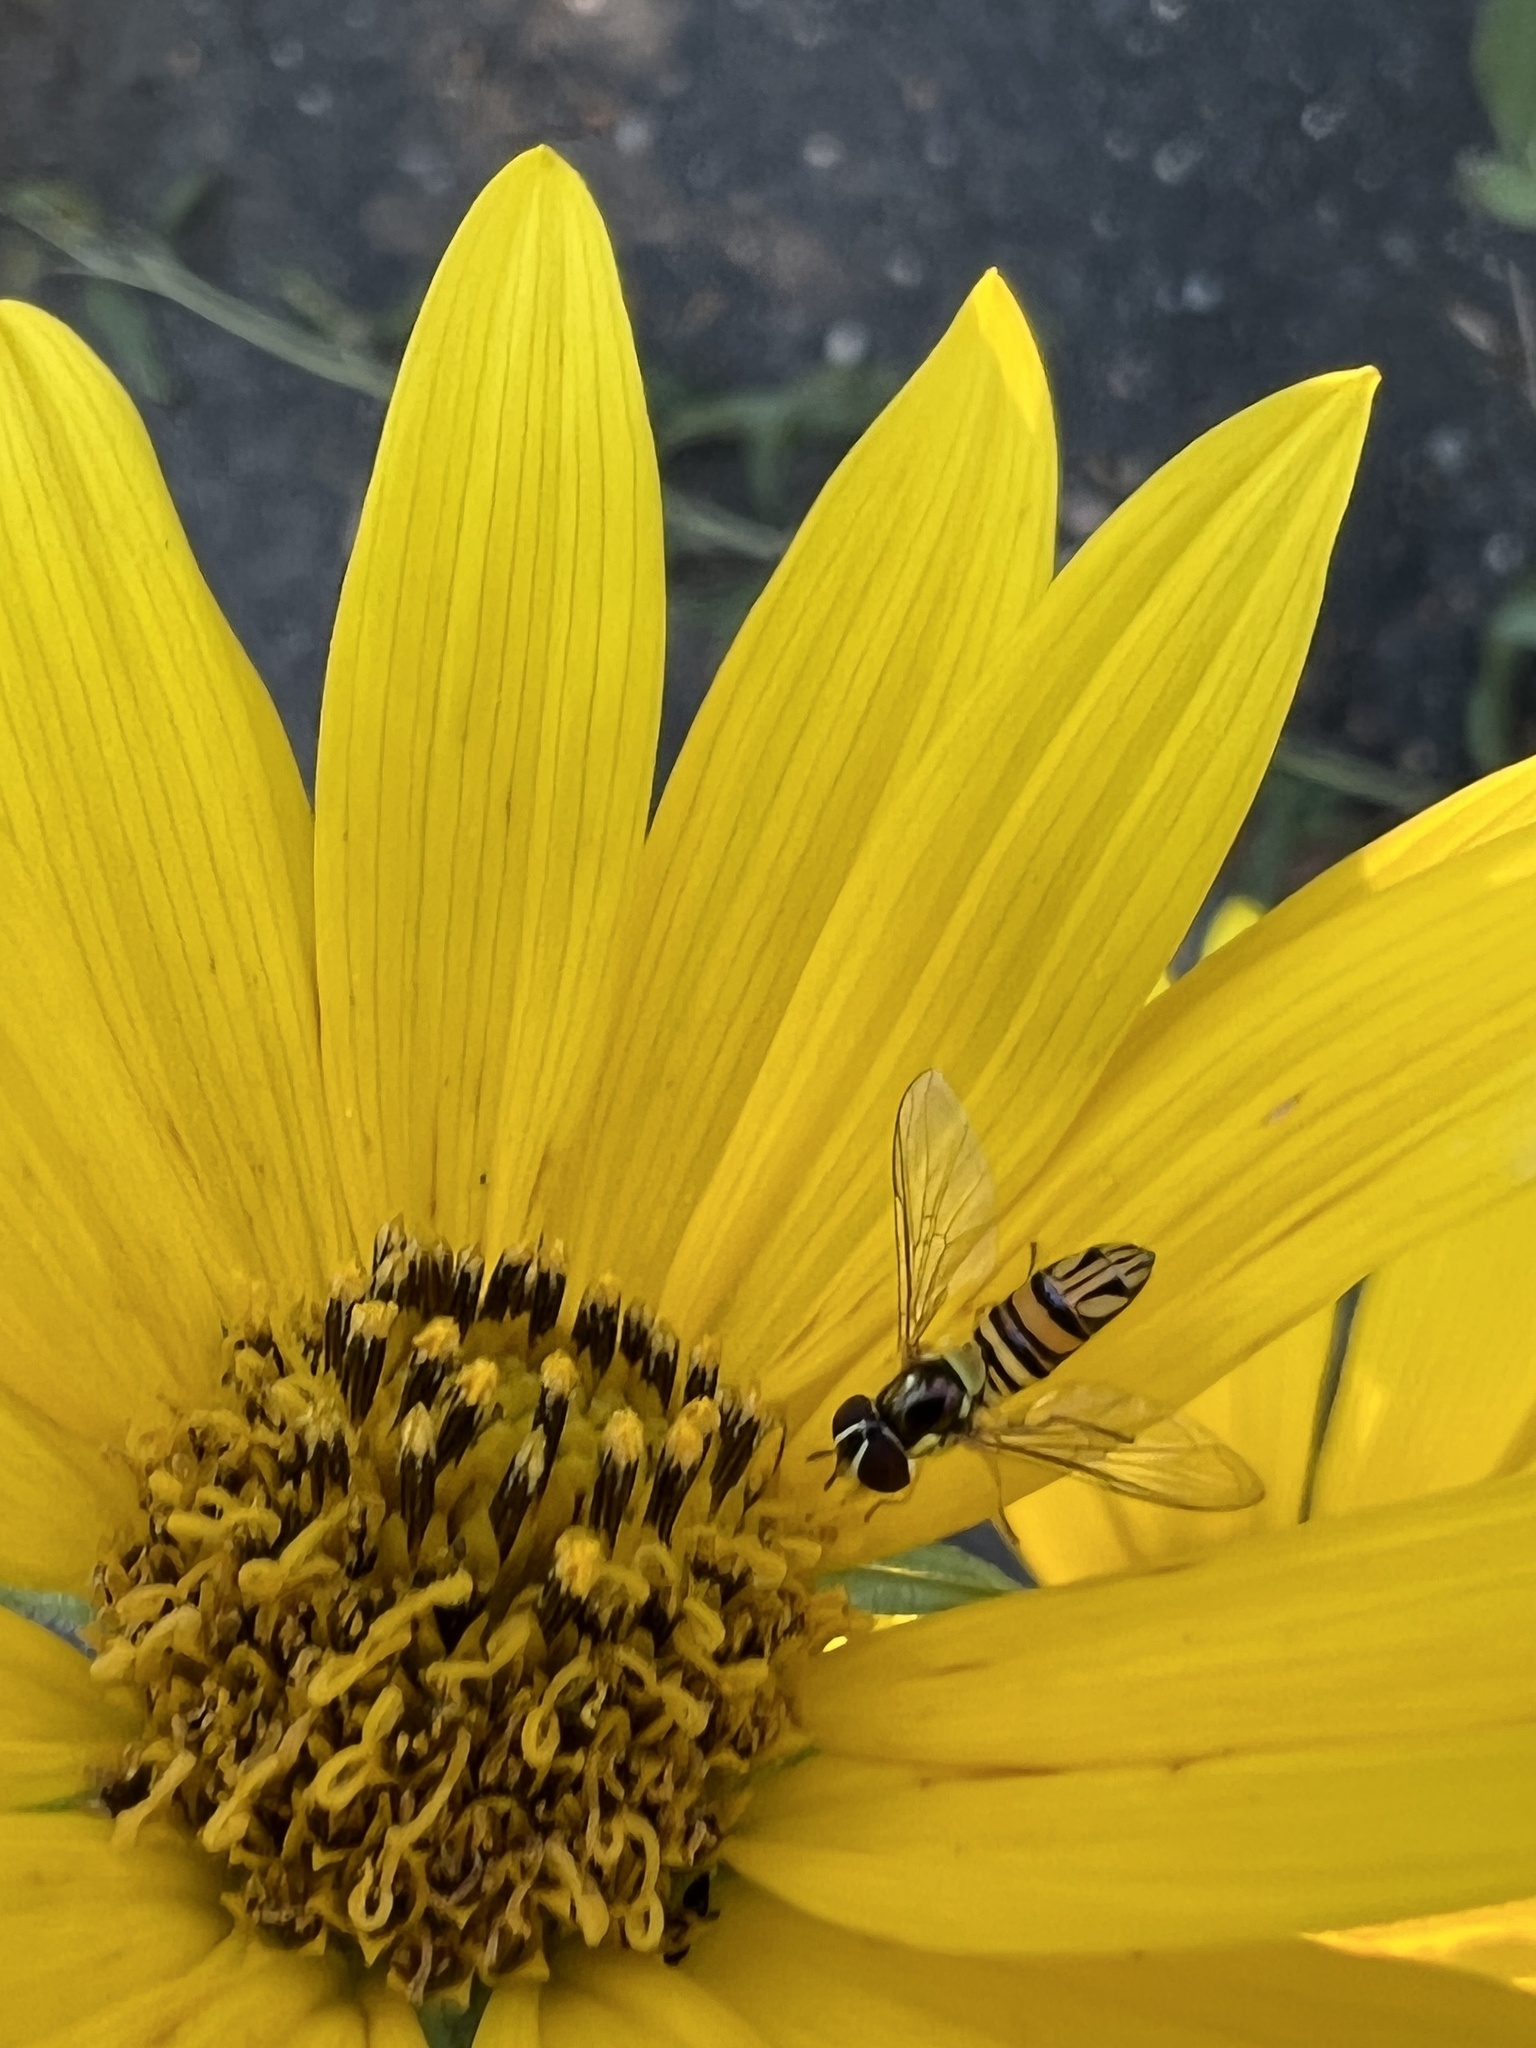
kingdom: Animalia
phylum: Arthropoda
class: Insecta
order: Diptera
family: Syrphidae
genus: Allograpta
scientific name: Allograpta obliqua
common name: Common oblique syrphid
